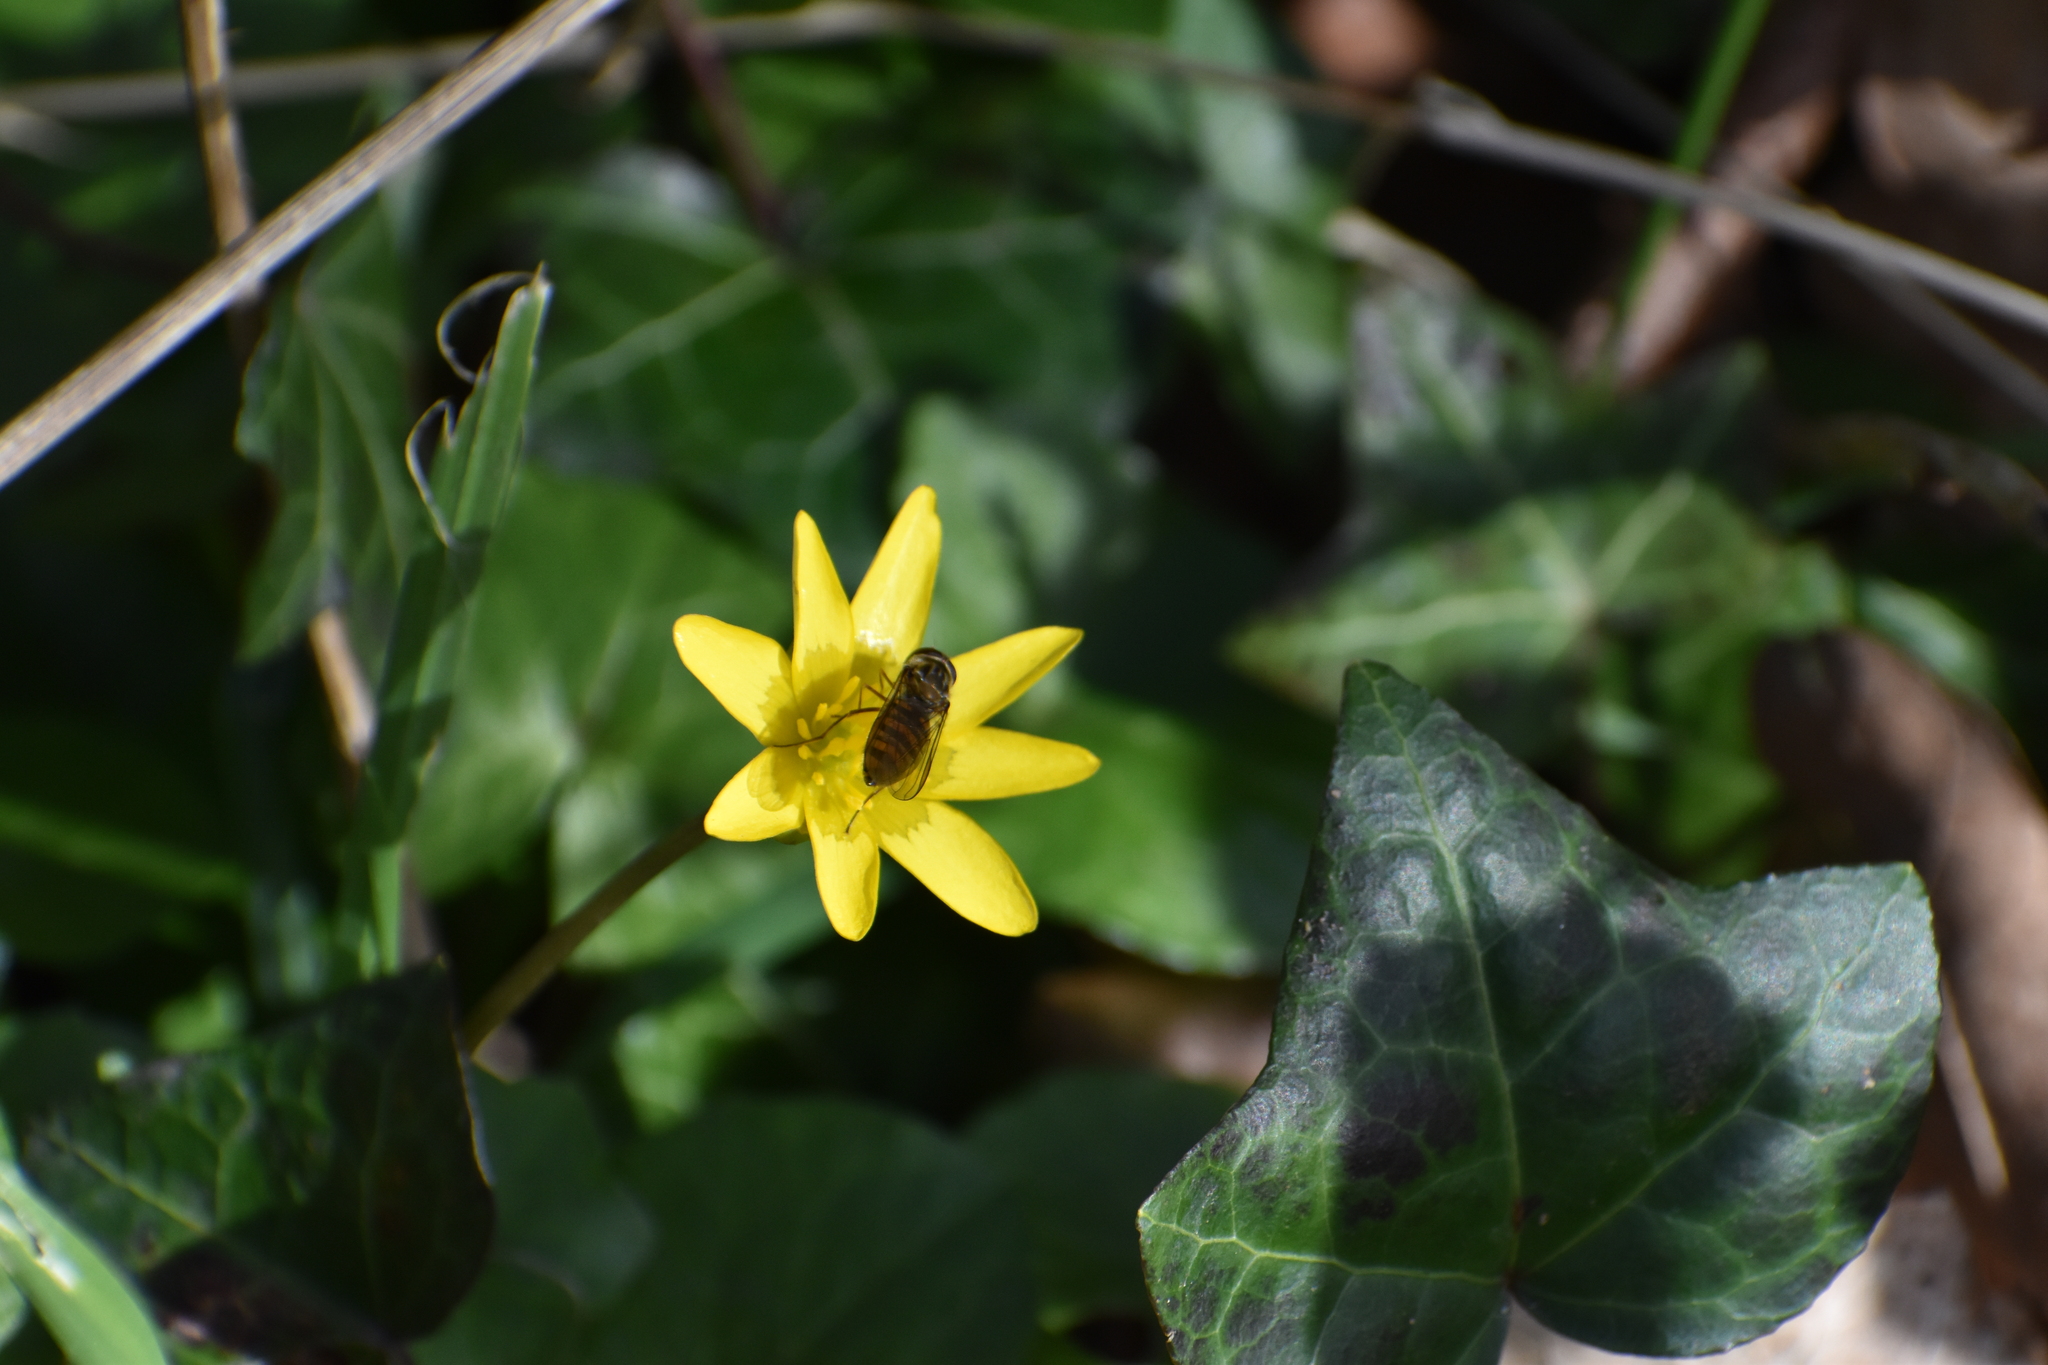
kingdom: Animalia
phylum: Arthropoda
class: Insecta
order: Diptera
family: Syrphidae
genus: Episyrphus
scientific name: Episyrphus balteatus
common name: Marmalade hoverfly
